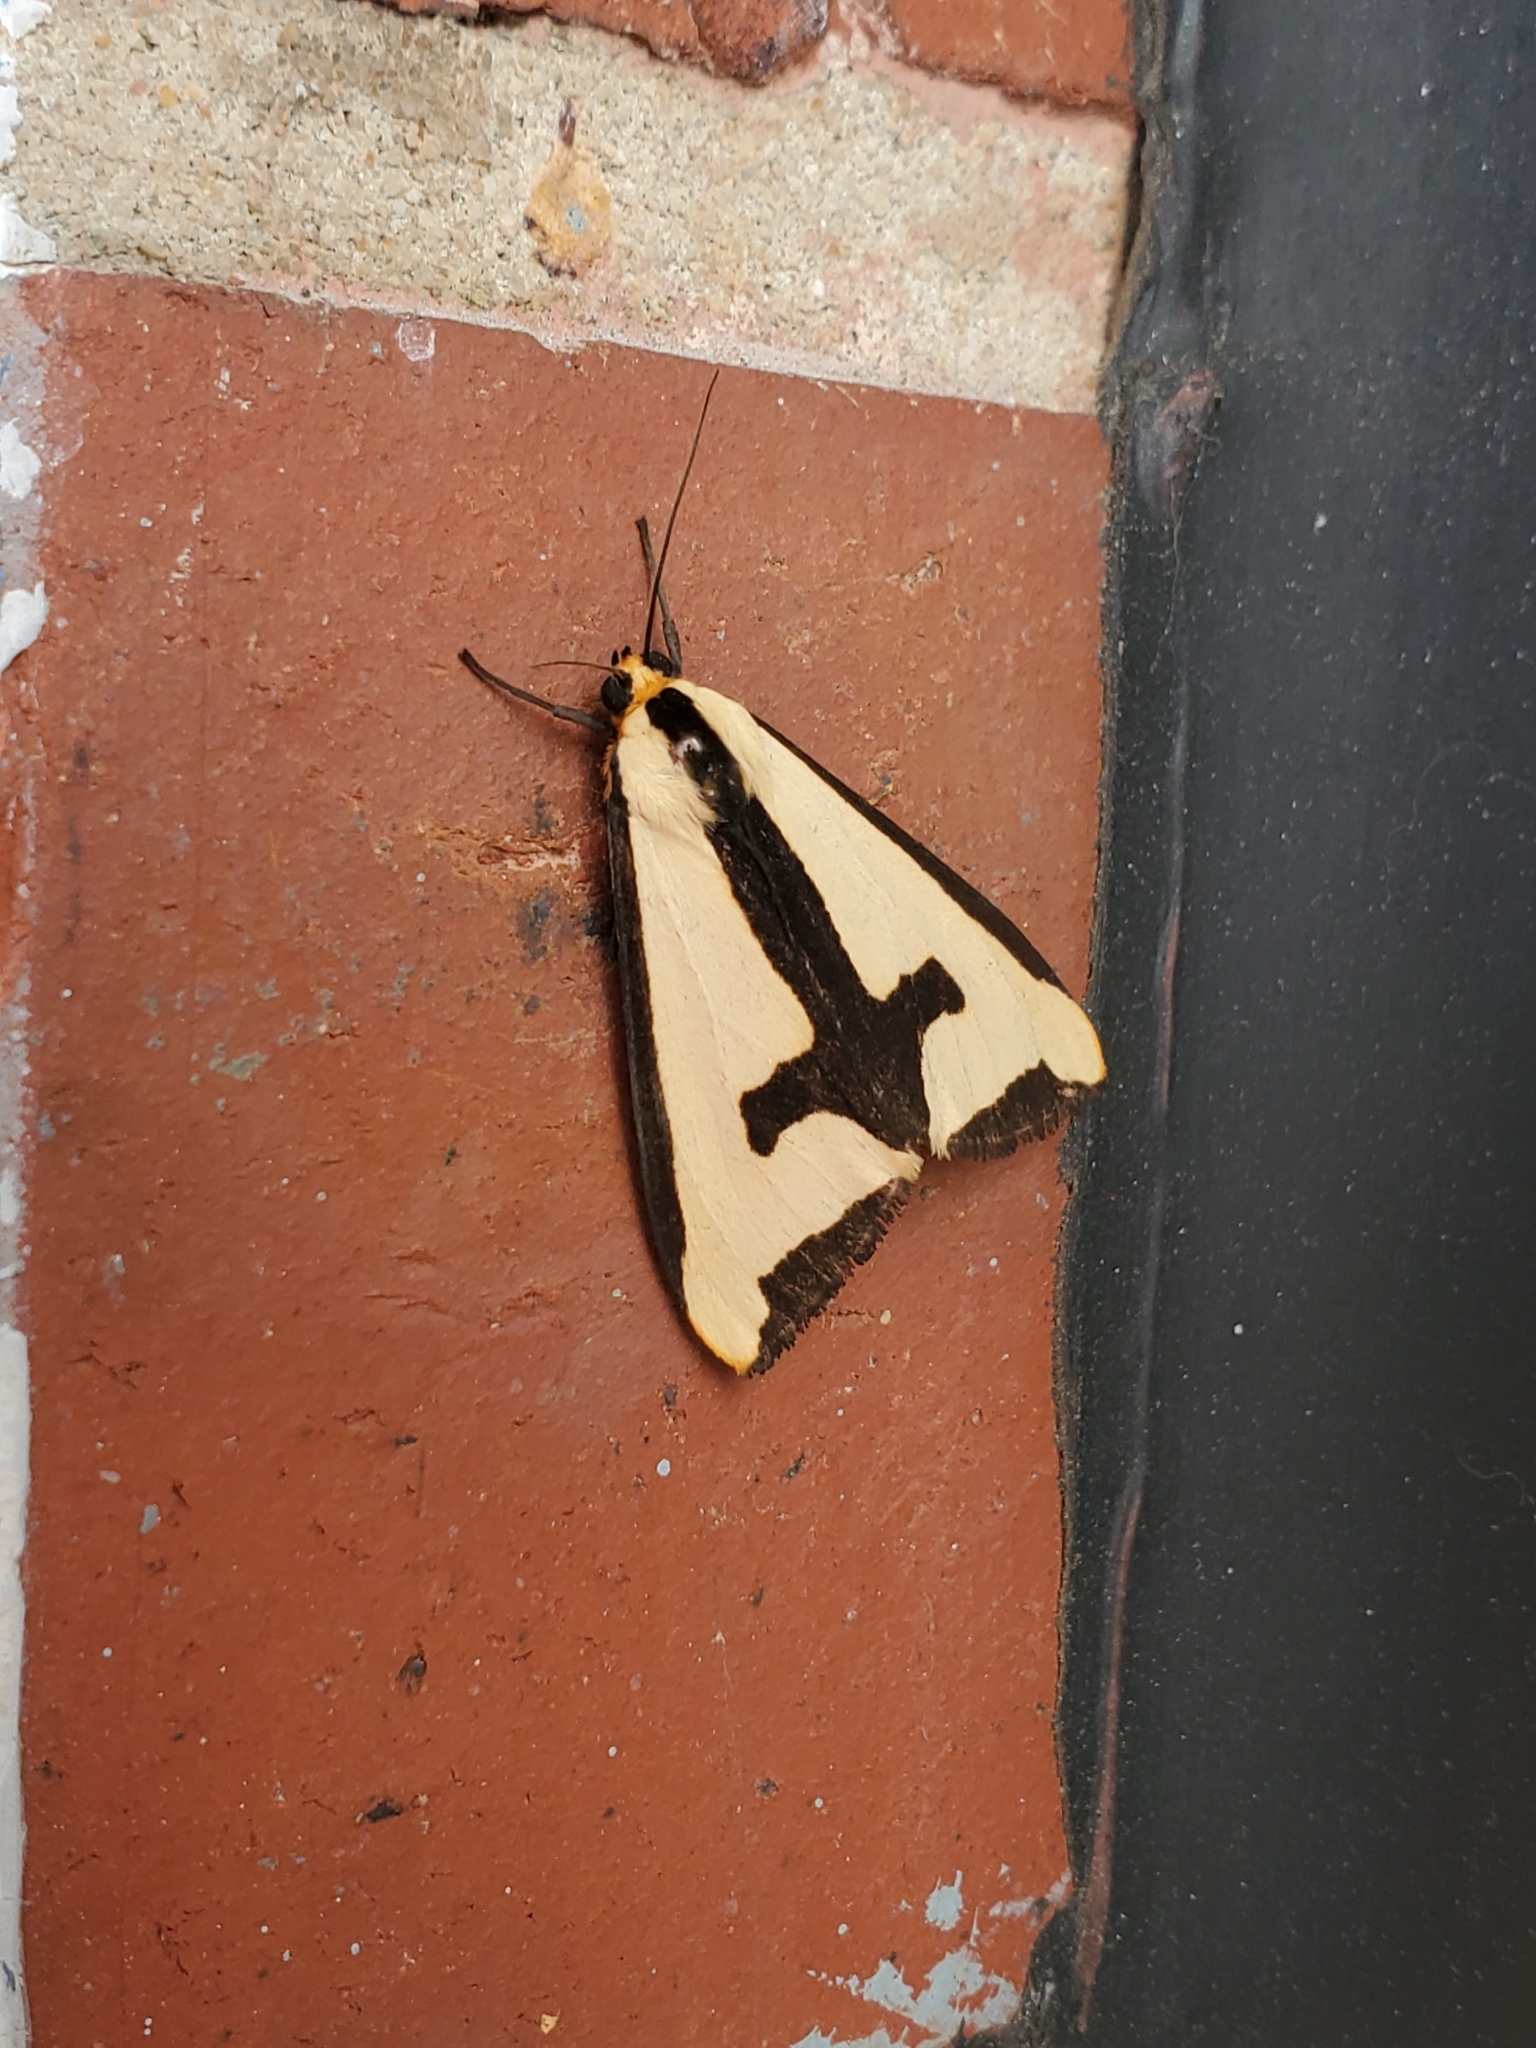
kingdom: Animalia
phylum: Arthropoda
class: Insecta
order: Lepidoptera
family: Erebidae
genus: Haploa
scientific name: Haploa clymene
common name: Clymene moth
